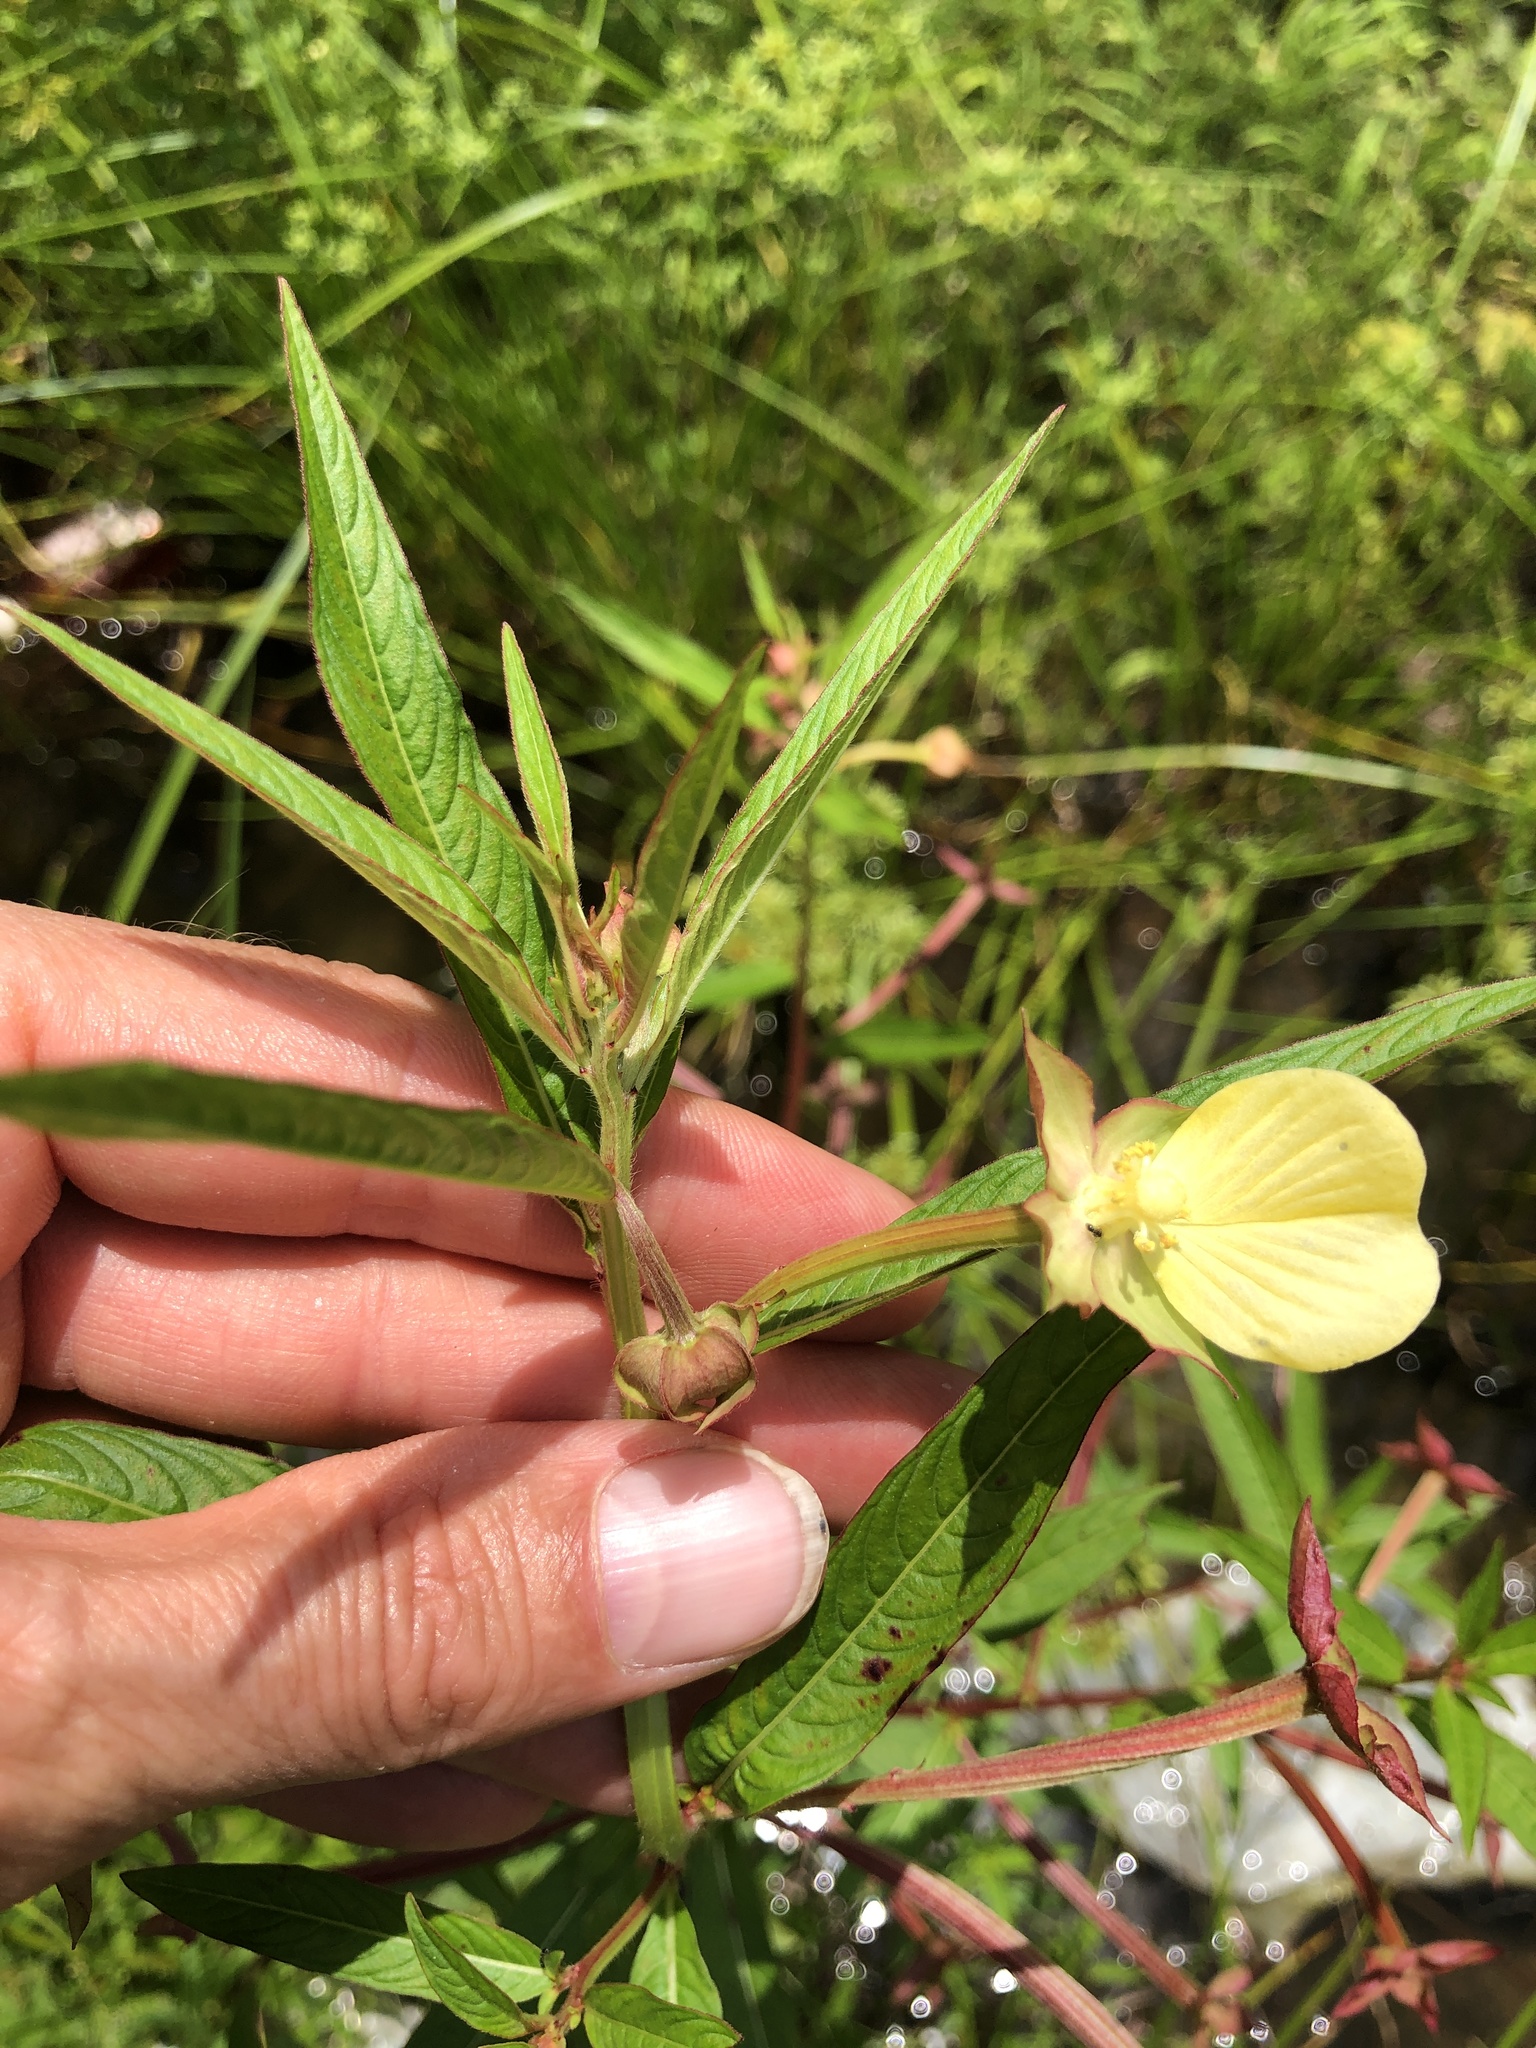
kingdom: Plantae
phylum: Tracheophyta
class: Magnoliopsida
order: Myrtales
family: Onagraceae
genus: Ludwigia
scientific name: Ludwigia octovalvis
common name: Water-primrose
